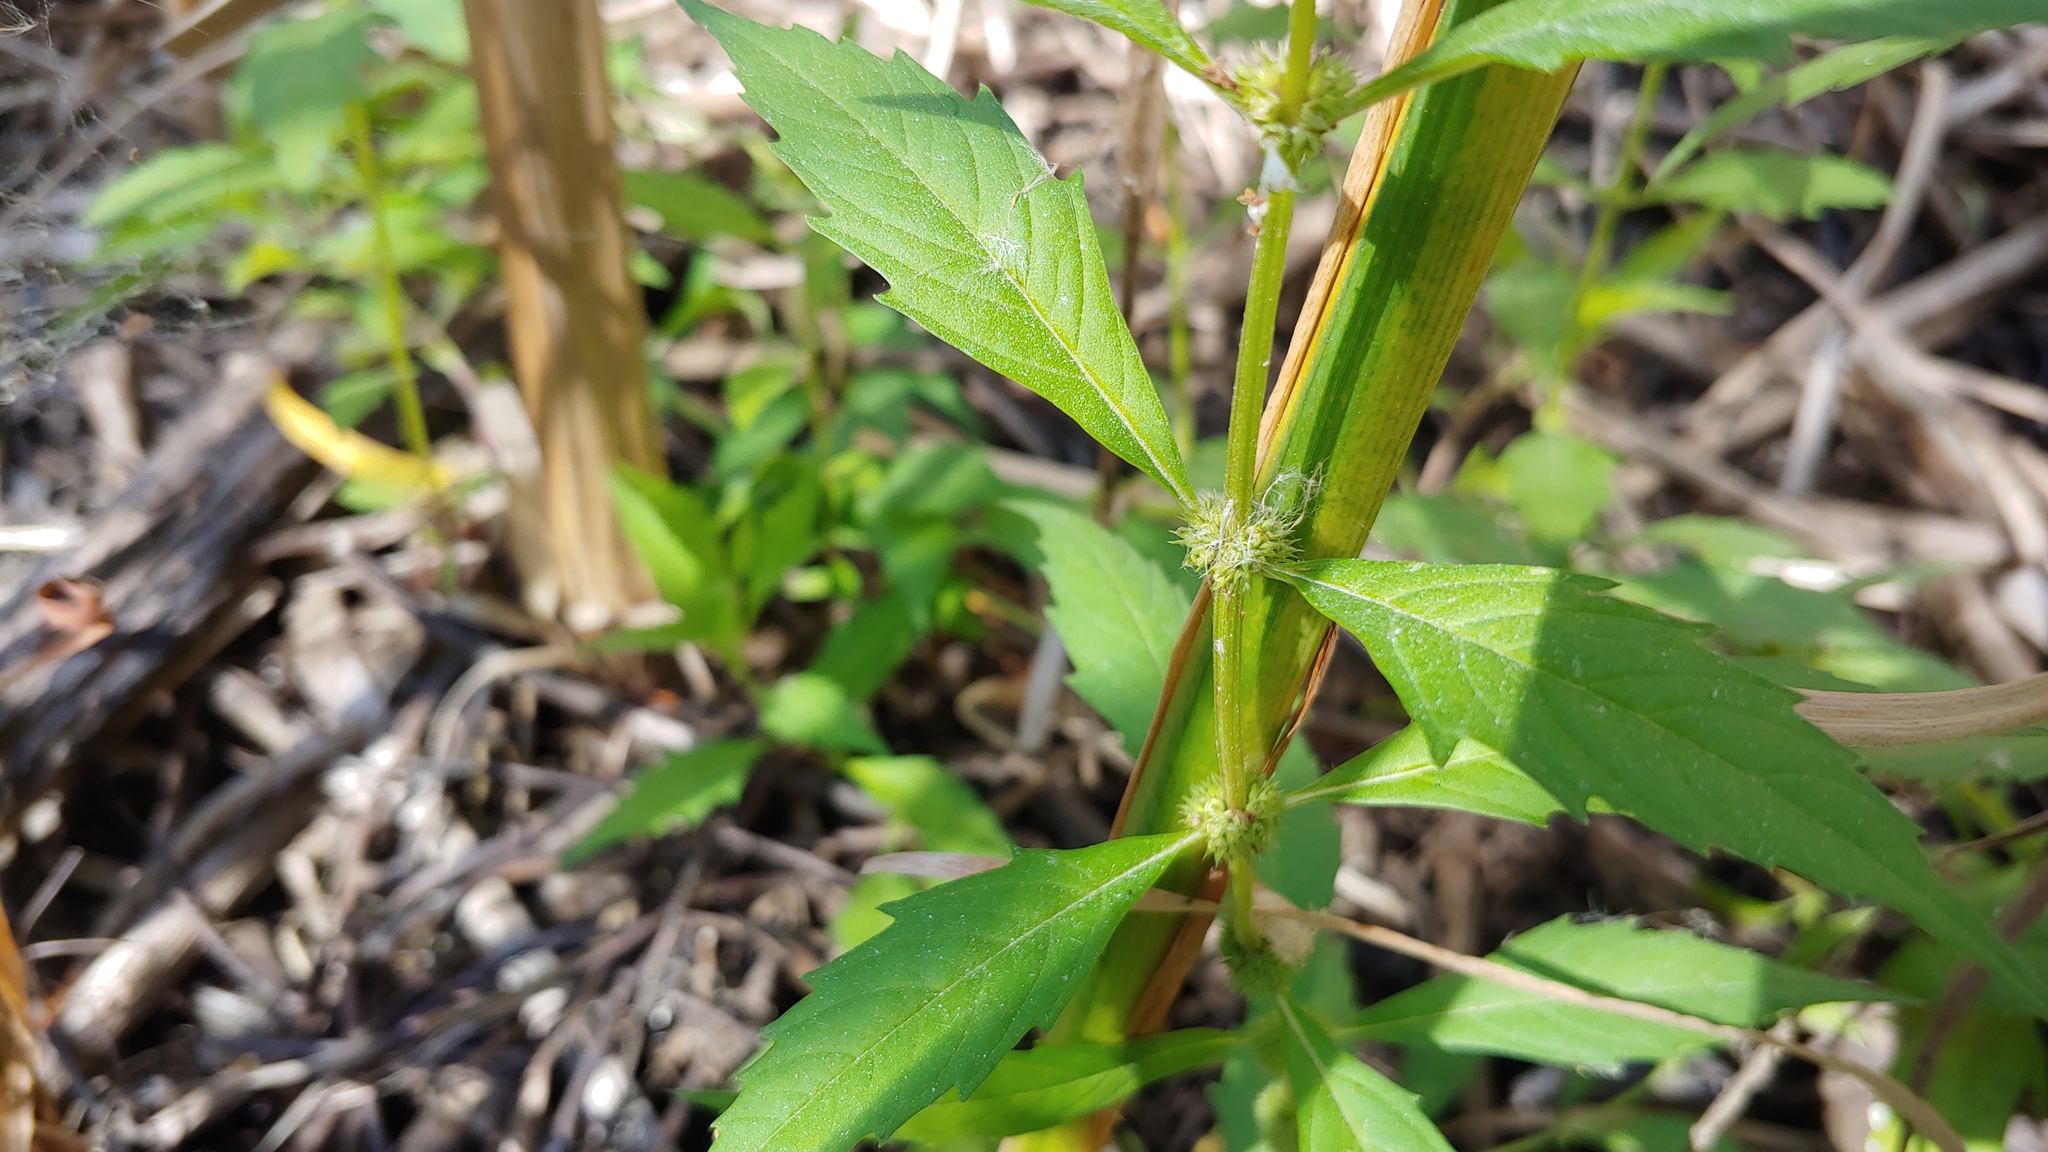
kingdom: Plantae
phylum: Tracheophyta
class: Magnoliopsida
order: Lamiales
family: Lamiaceae
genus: Lycopus
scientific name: Lycopus rubellus
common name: Stalked bugleweed
